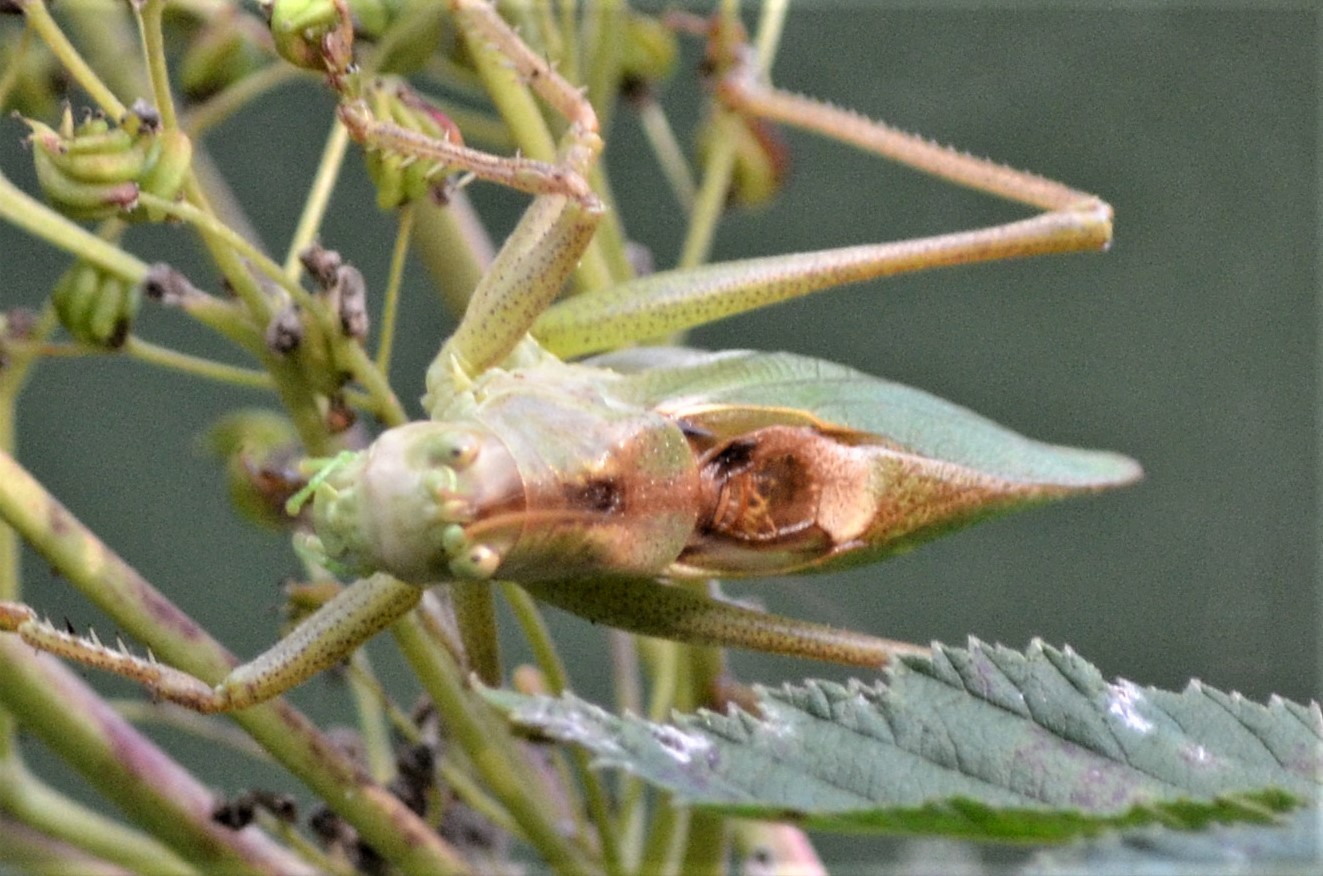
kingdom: Animalia
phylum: Arthropoda
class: Insecta
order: Orthoptera
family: Tettigoniidae
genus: Tettigonia
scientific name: Tettigonia cantans
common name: Upland green bush-cricket
